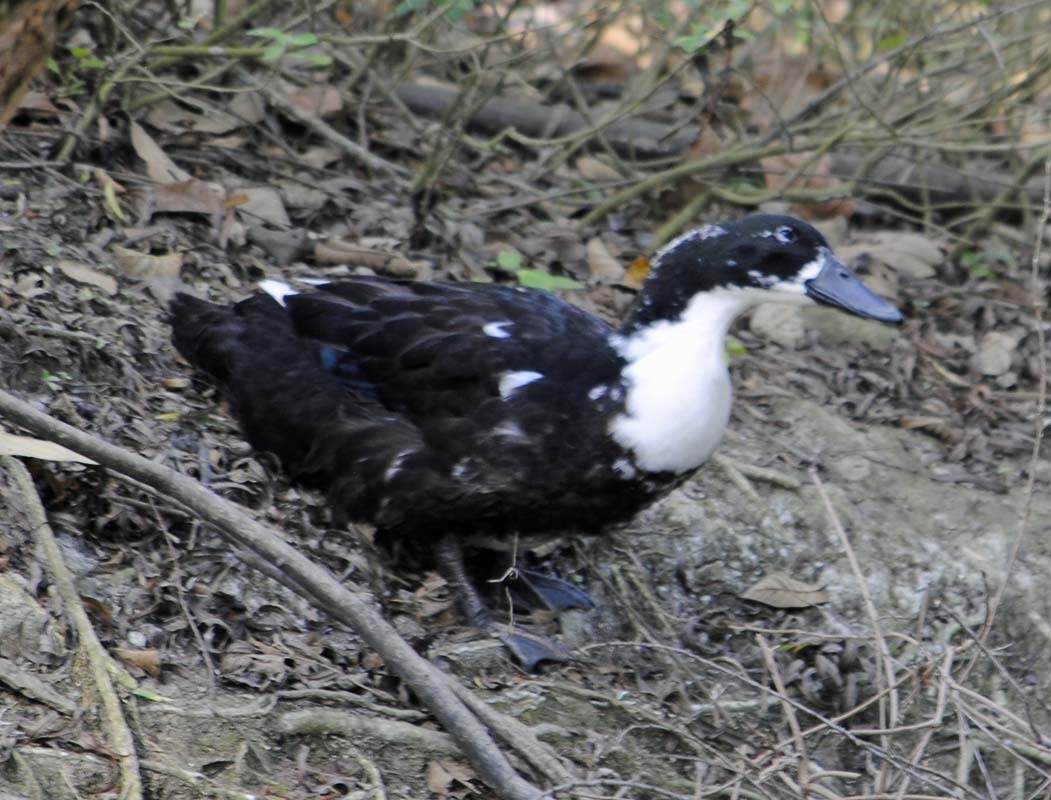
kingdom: Animalia
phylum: Chordata
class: Aves
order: Anseriformes
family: Anatidae
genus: Anas
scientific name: Anas platyrhynchos
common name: Mallard
